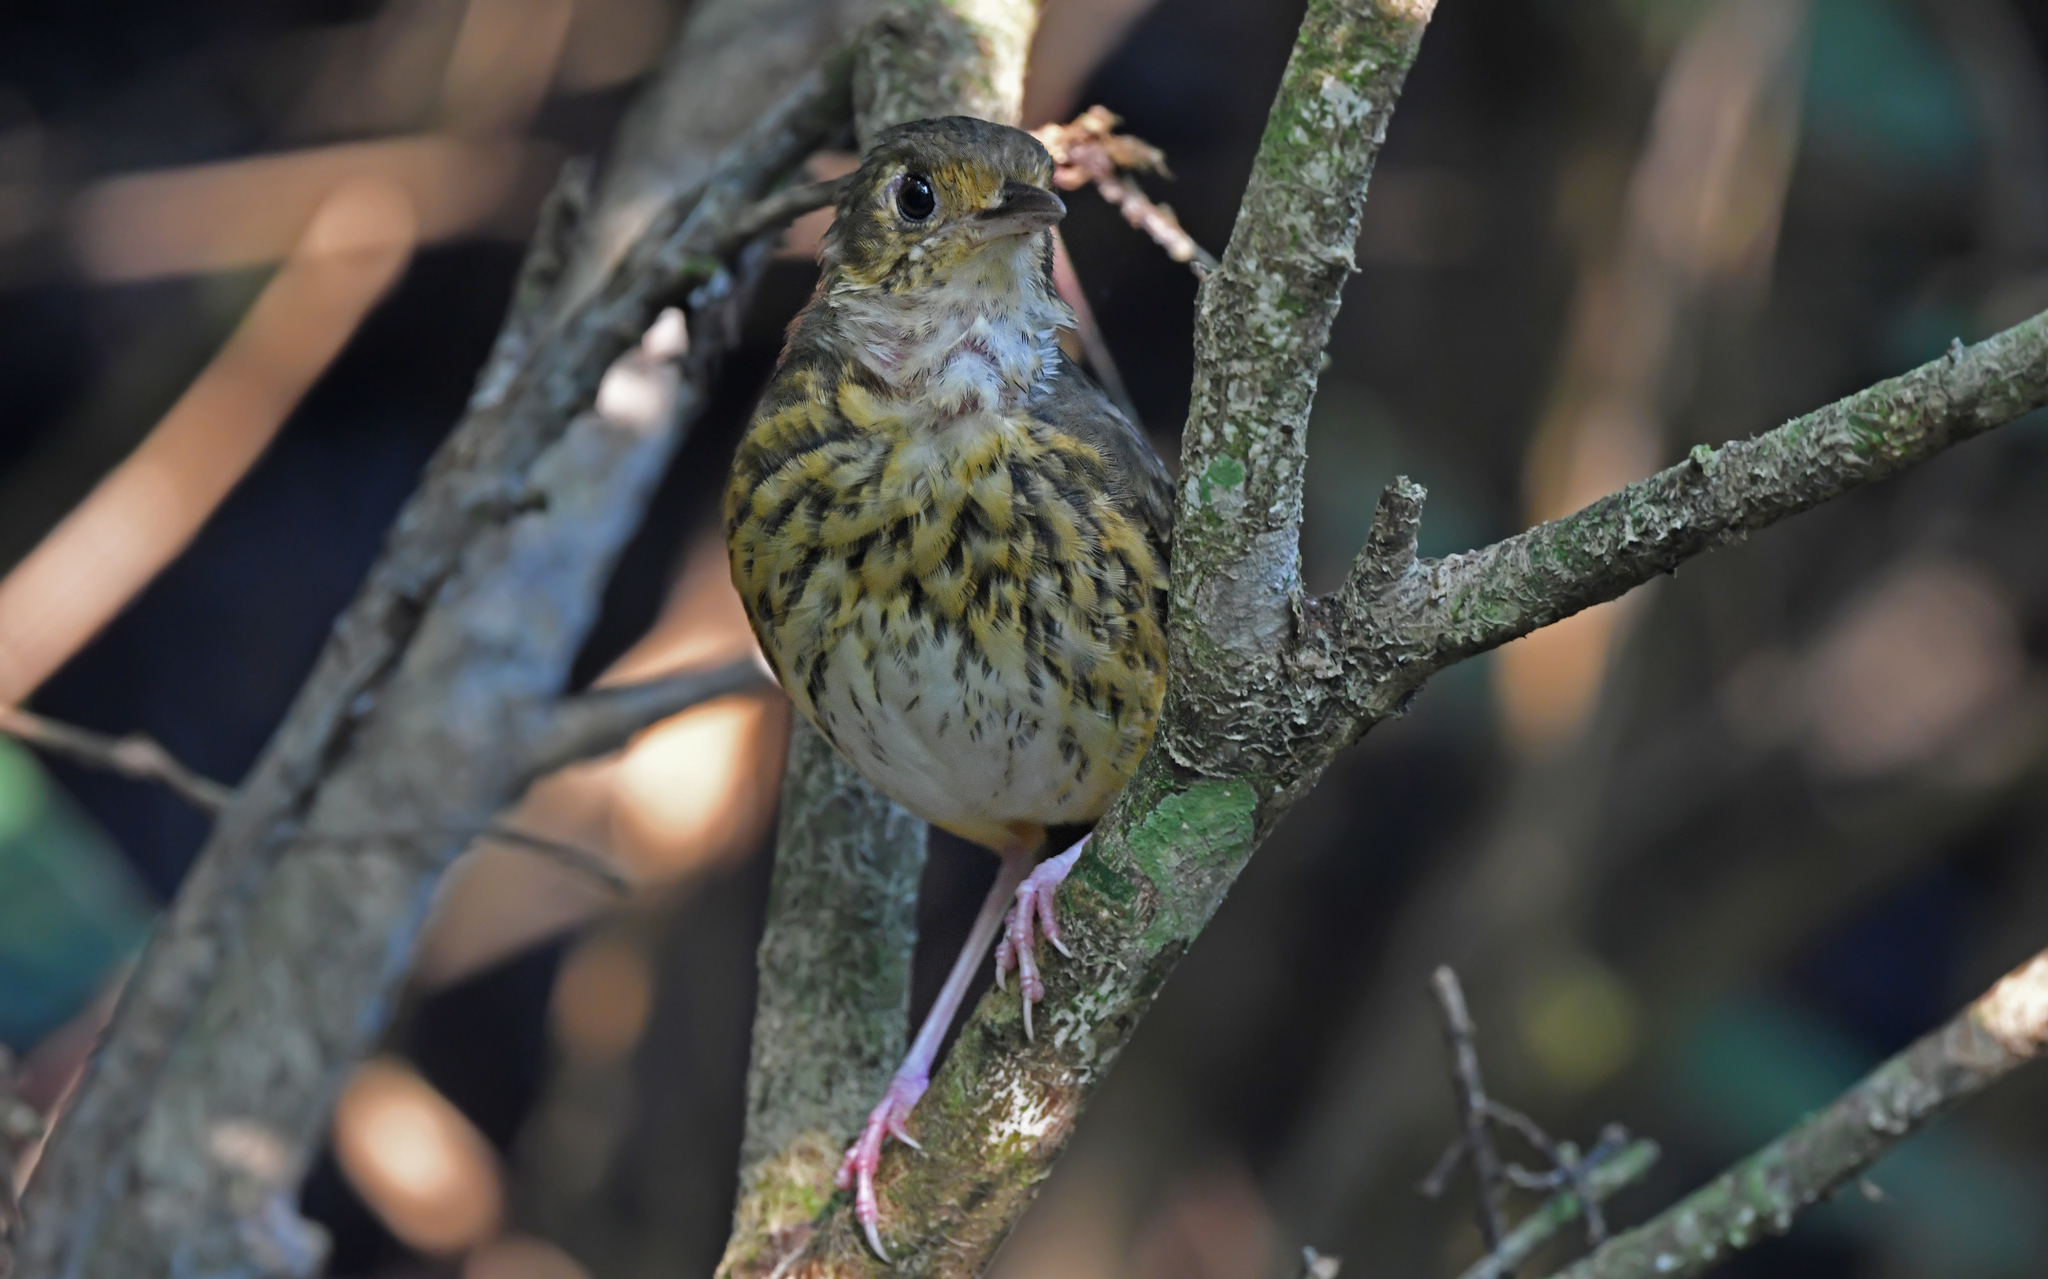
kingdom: Animalia
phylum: Chordata
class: Aves
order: Passeriformes
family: Grallariidae
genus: Hylopezus
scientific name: Hylopezus berlepschi
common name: Amazonian antpitta
